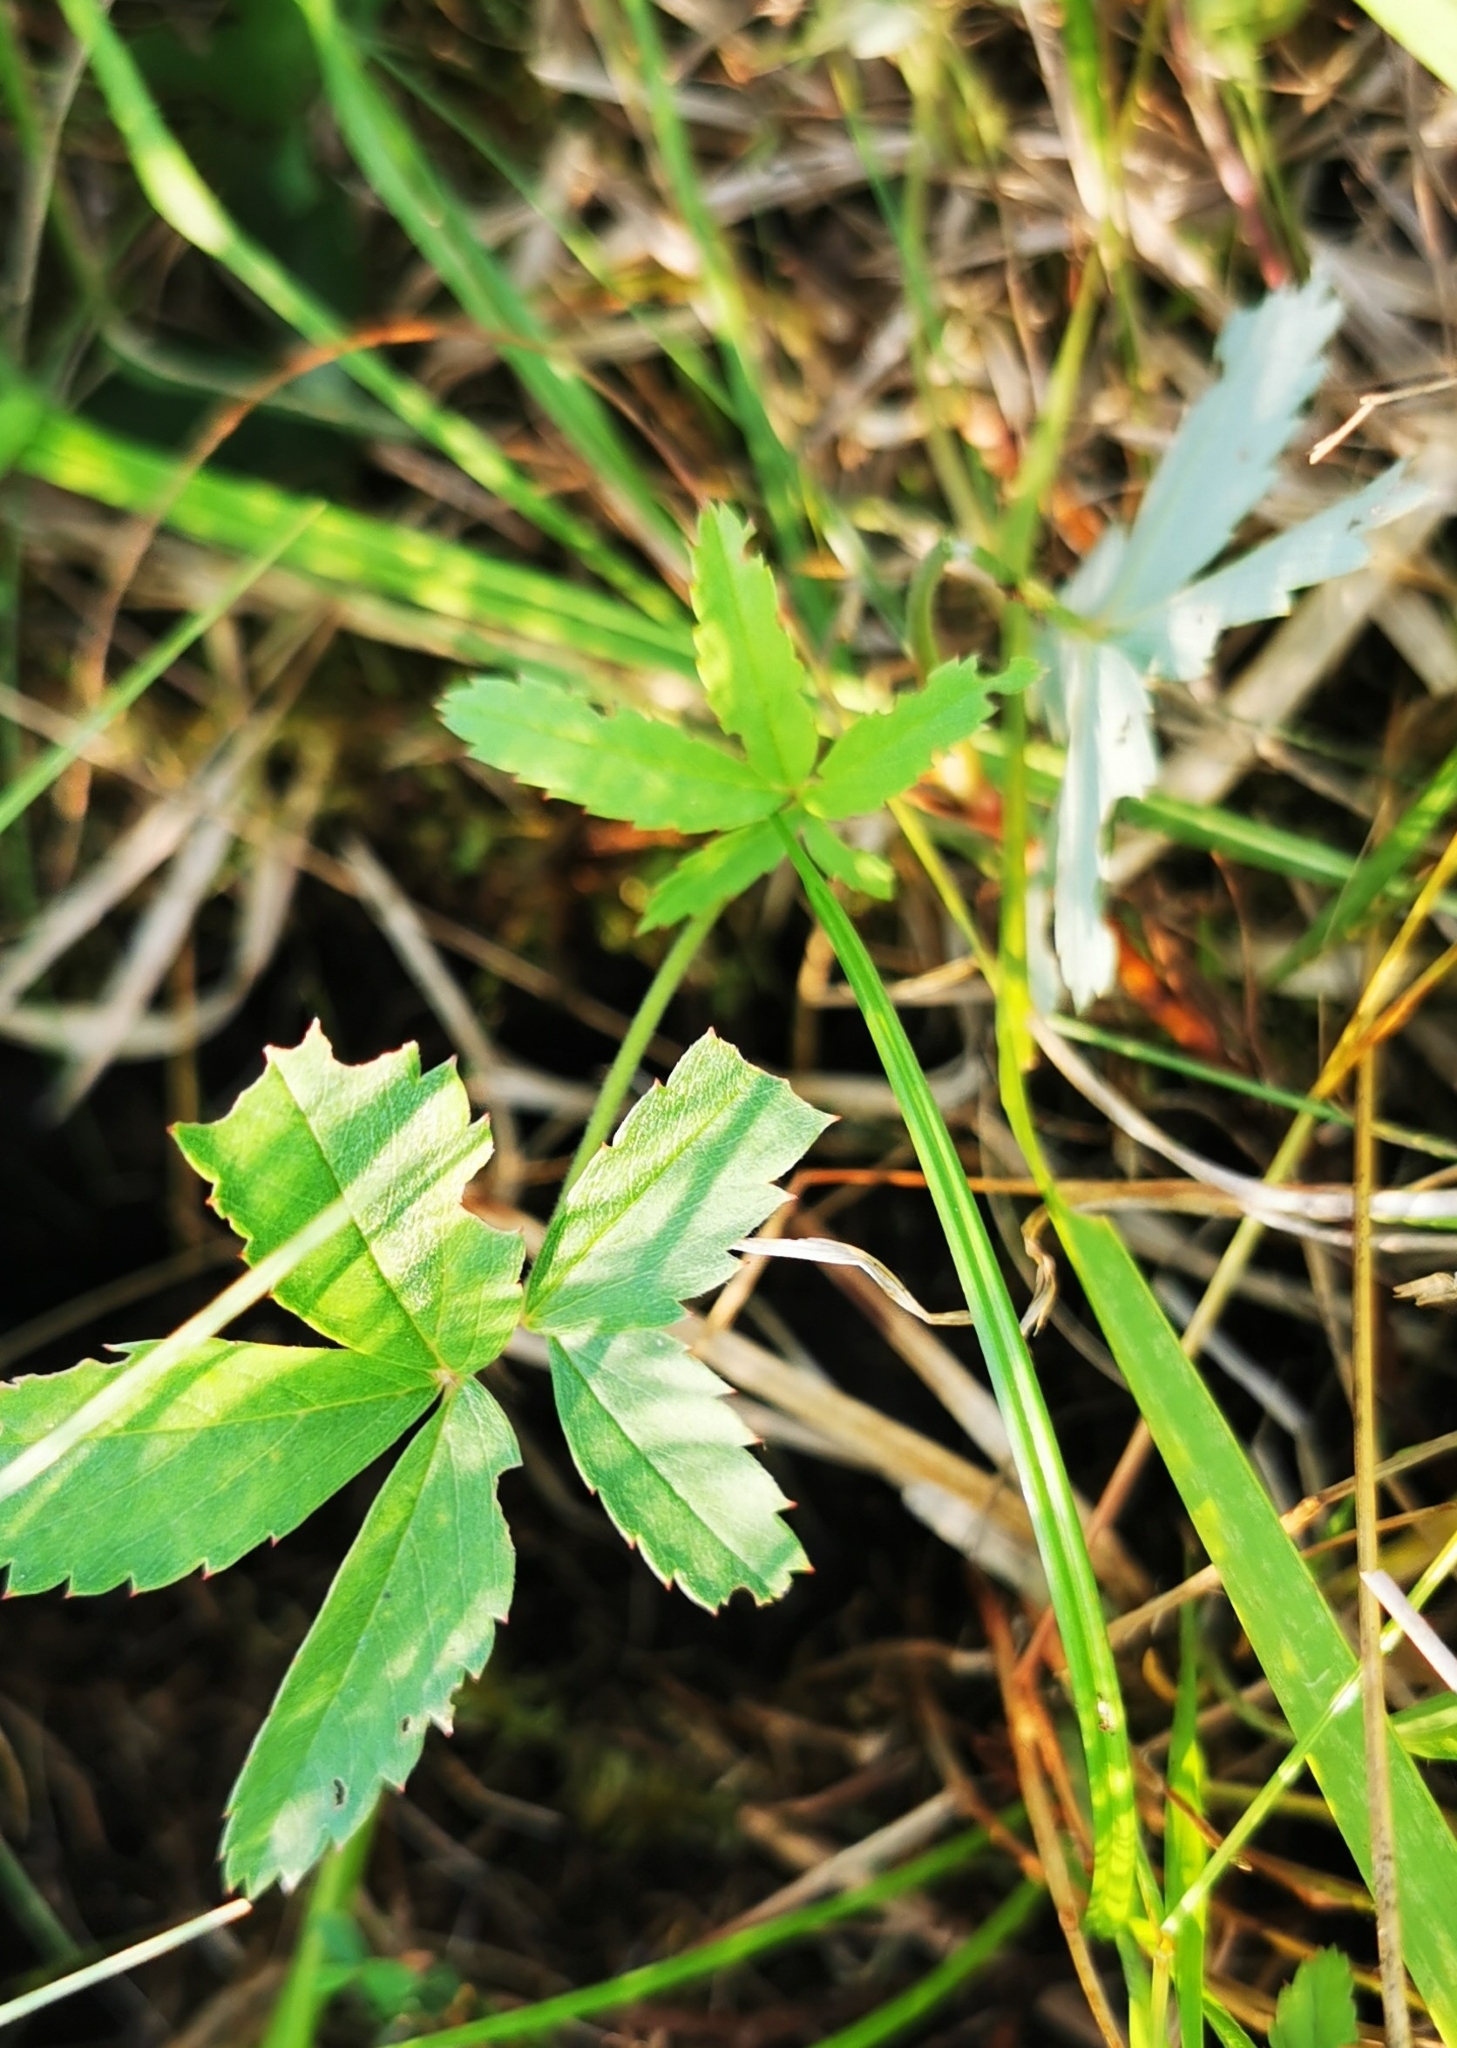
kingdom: Plantae
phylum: Tracheophyta
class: Magnoliopsida
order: Rosales
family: Rosaceae
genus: Comarum
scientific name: Comarum palustre
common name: Marsh cinquefoil
